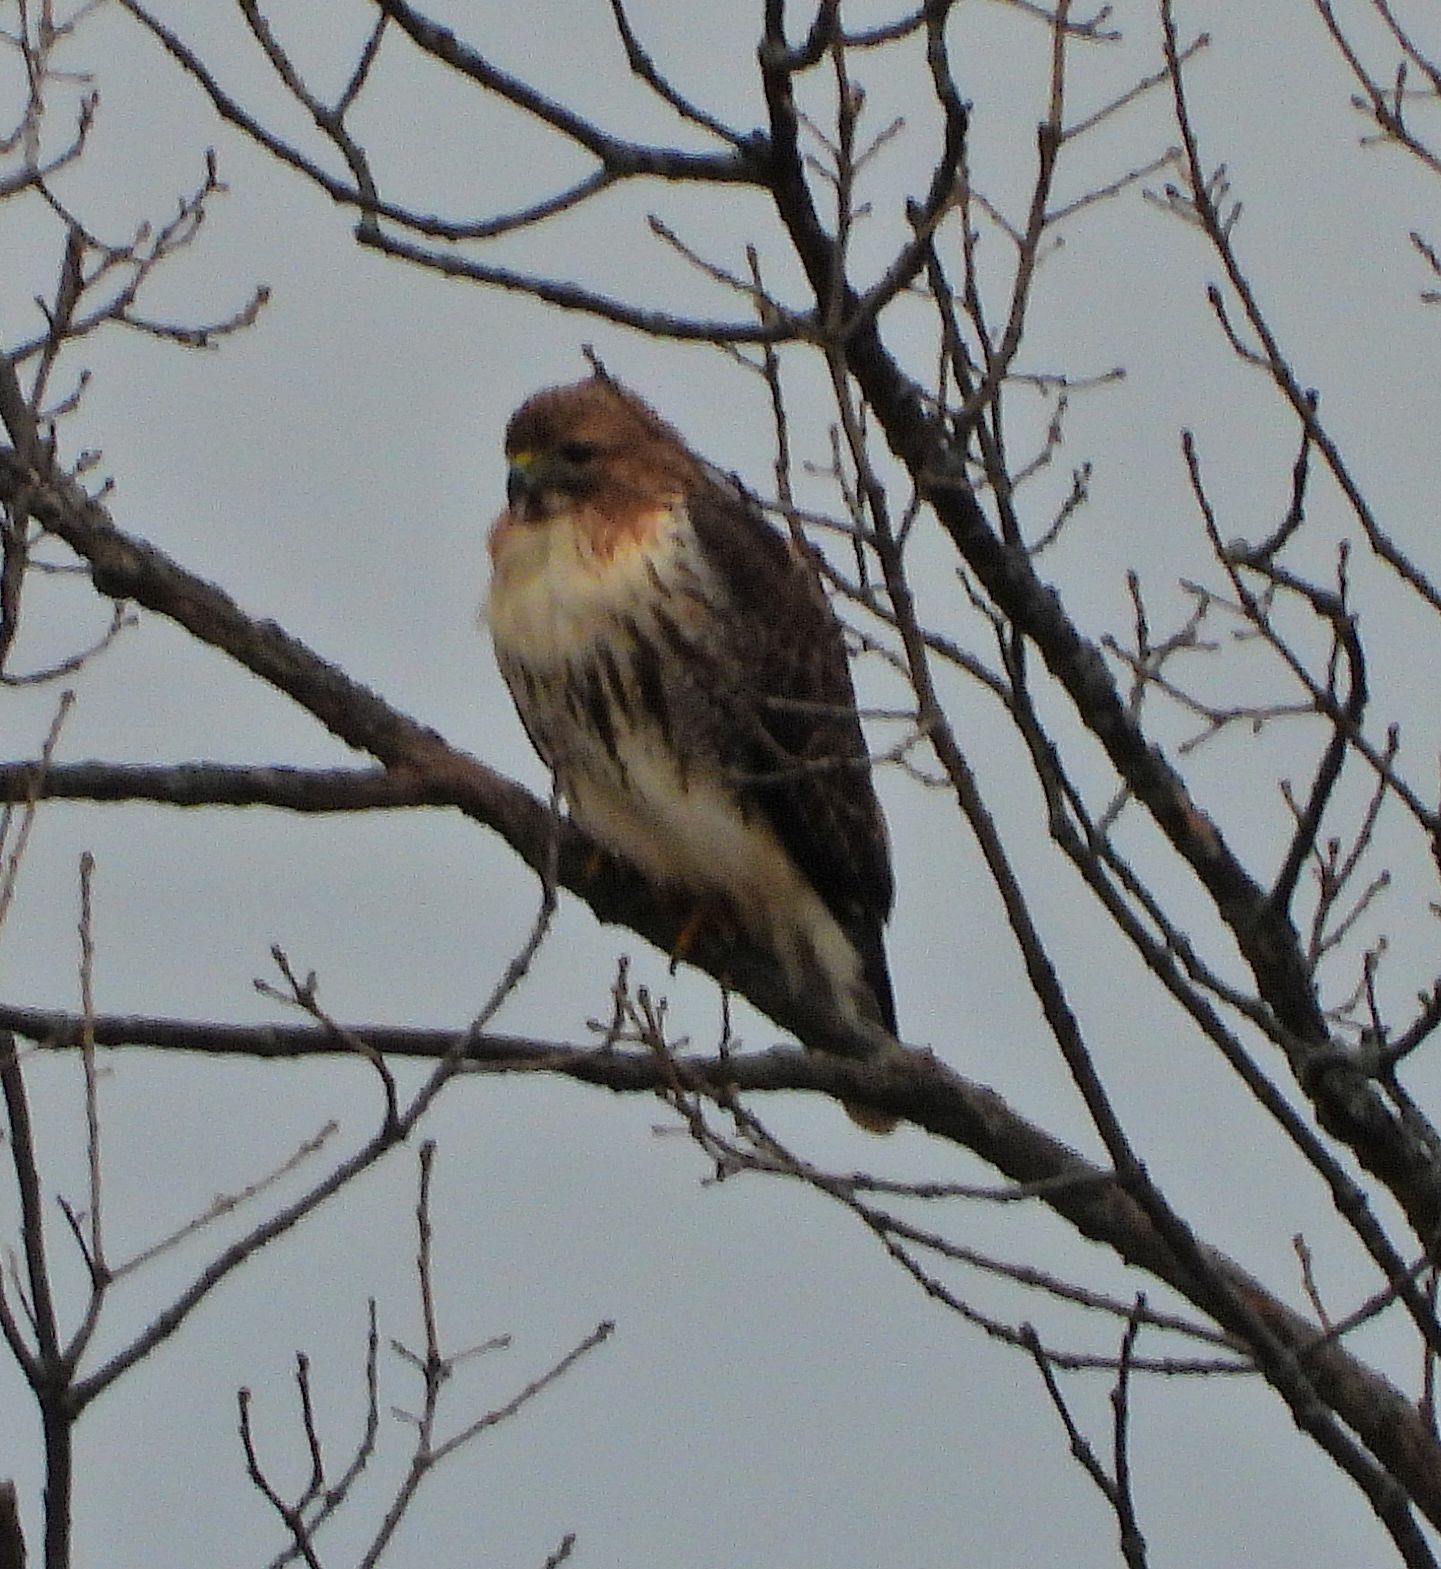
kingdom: Animalia
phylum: Chordata
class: Aves
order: Accipitriformes
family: Accipitridae
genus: Buteo
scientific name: Buteo jamaicensis
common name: Red-tailed hawk
